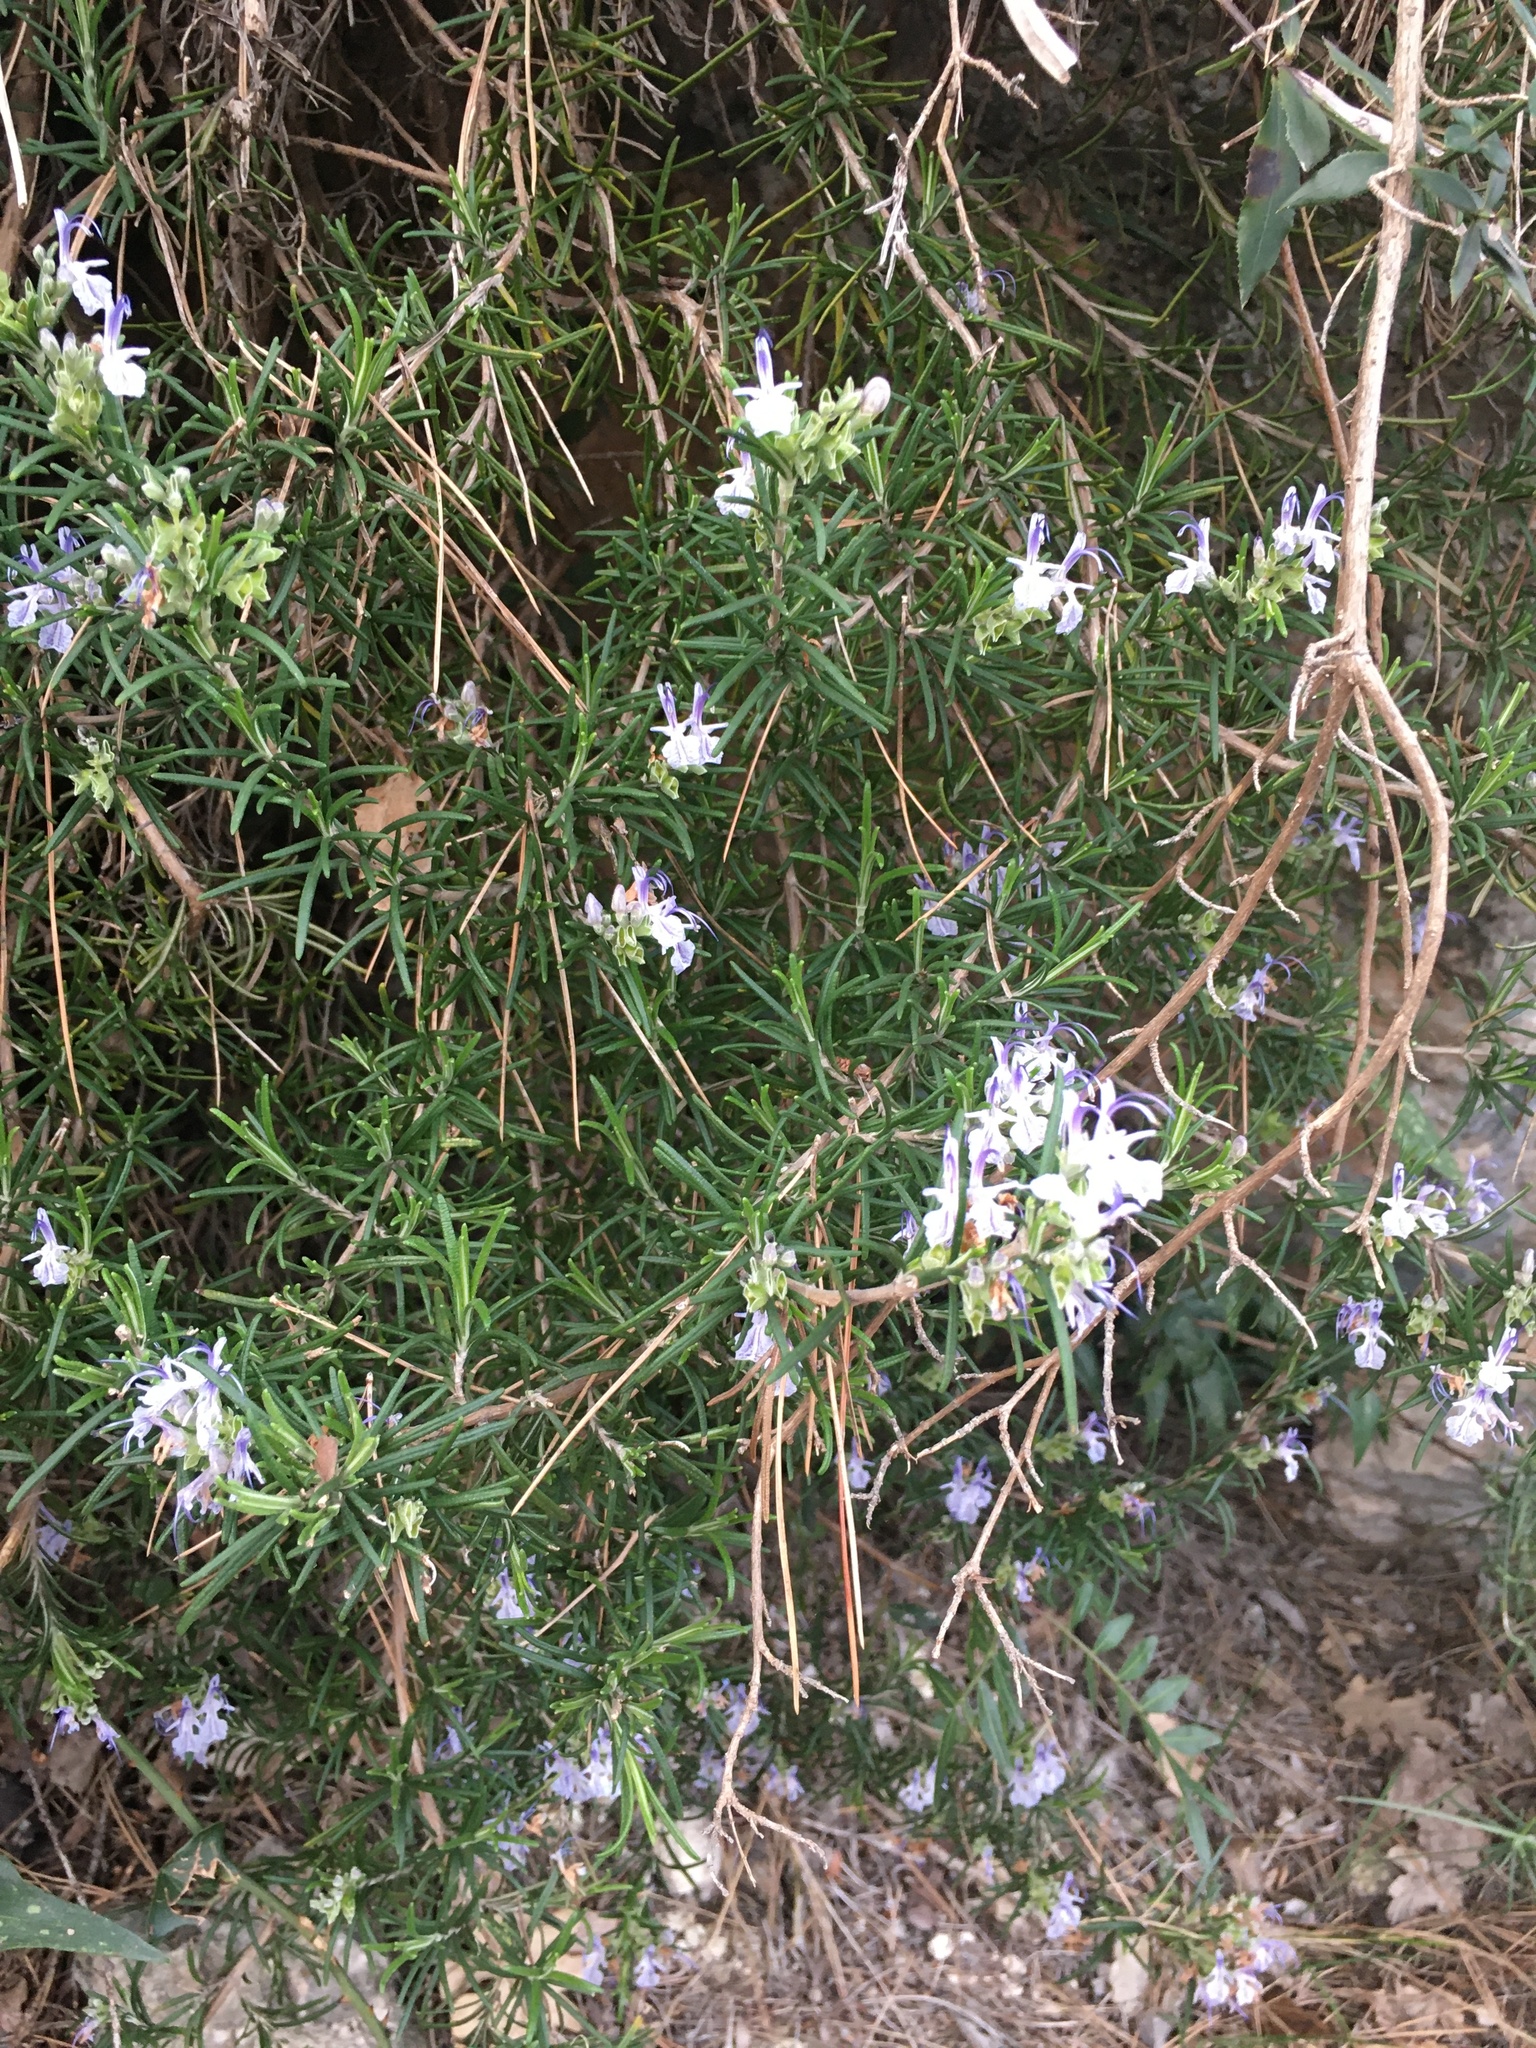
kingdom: Plantae
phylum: Tracheophyta
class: Magnoliopsida
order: Lamiales
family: Lamiaceae
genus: Salvia
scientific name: Salvia rosmarinus
